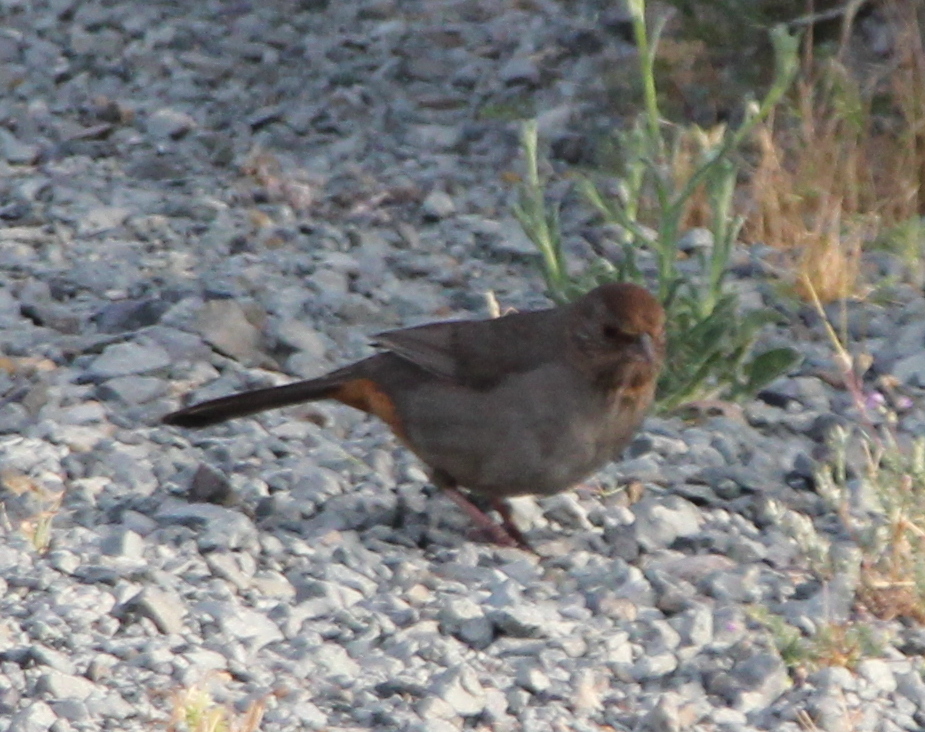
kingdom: Animalia
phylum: Chordata
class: Aves
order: Passeriformes
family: Passerellidae
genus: Melozone
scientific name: Melozone crissalis
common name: California towhee
